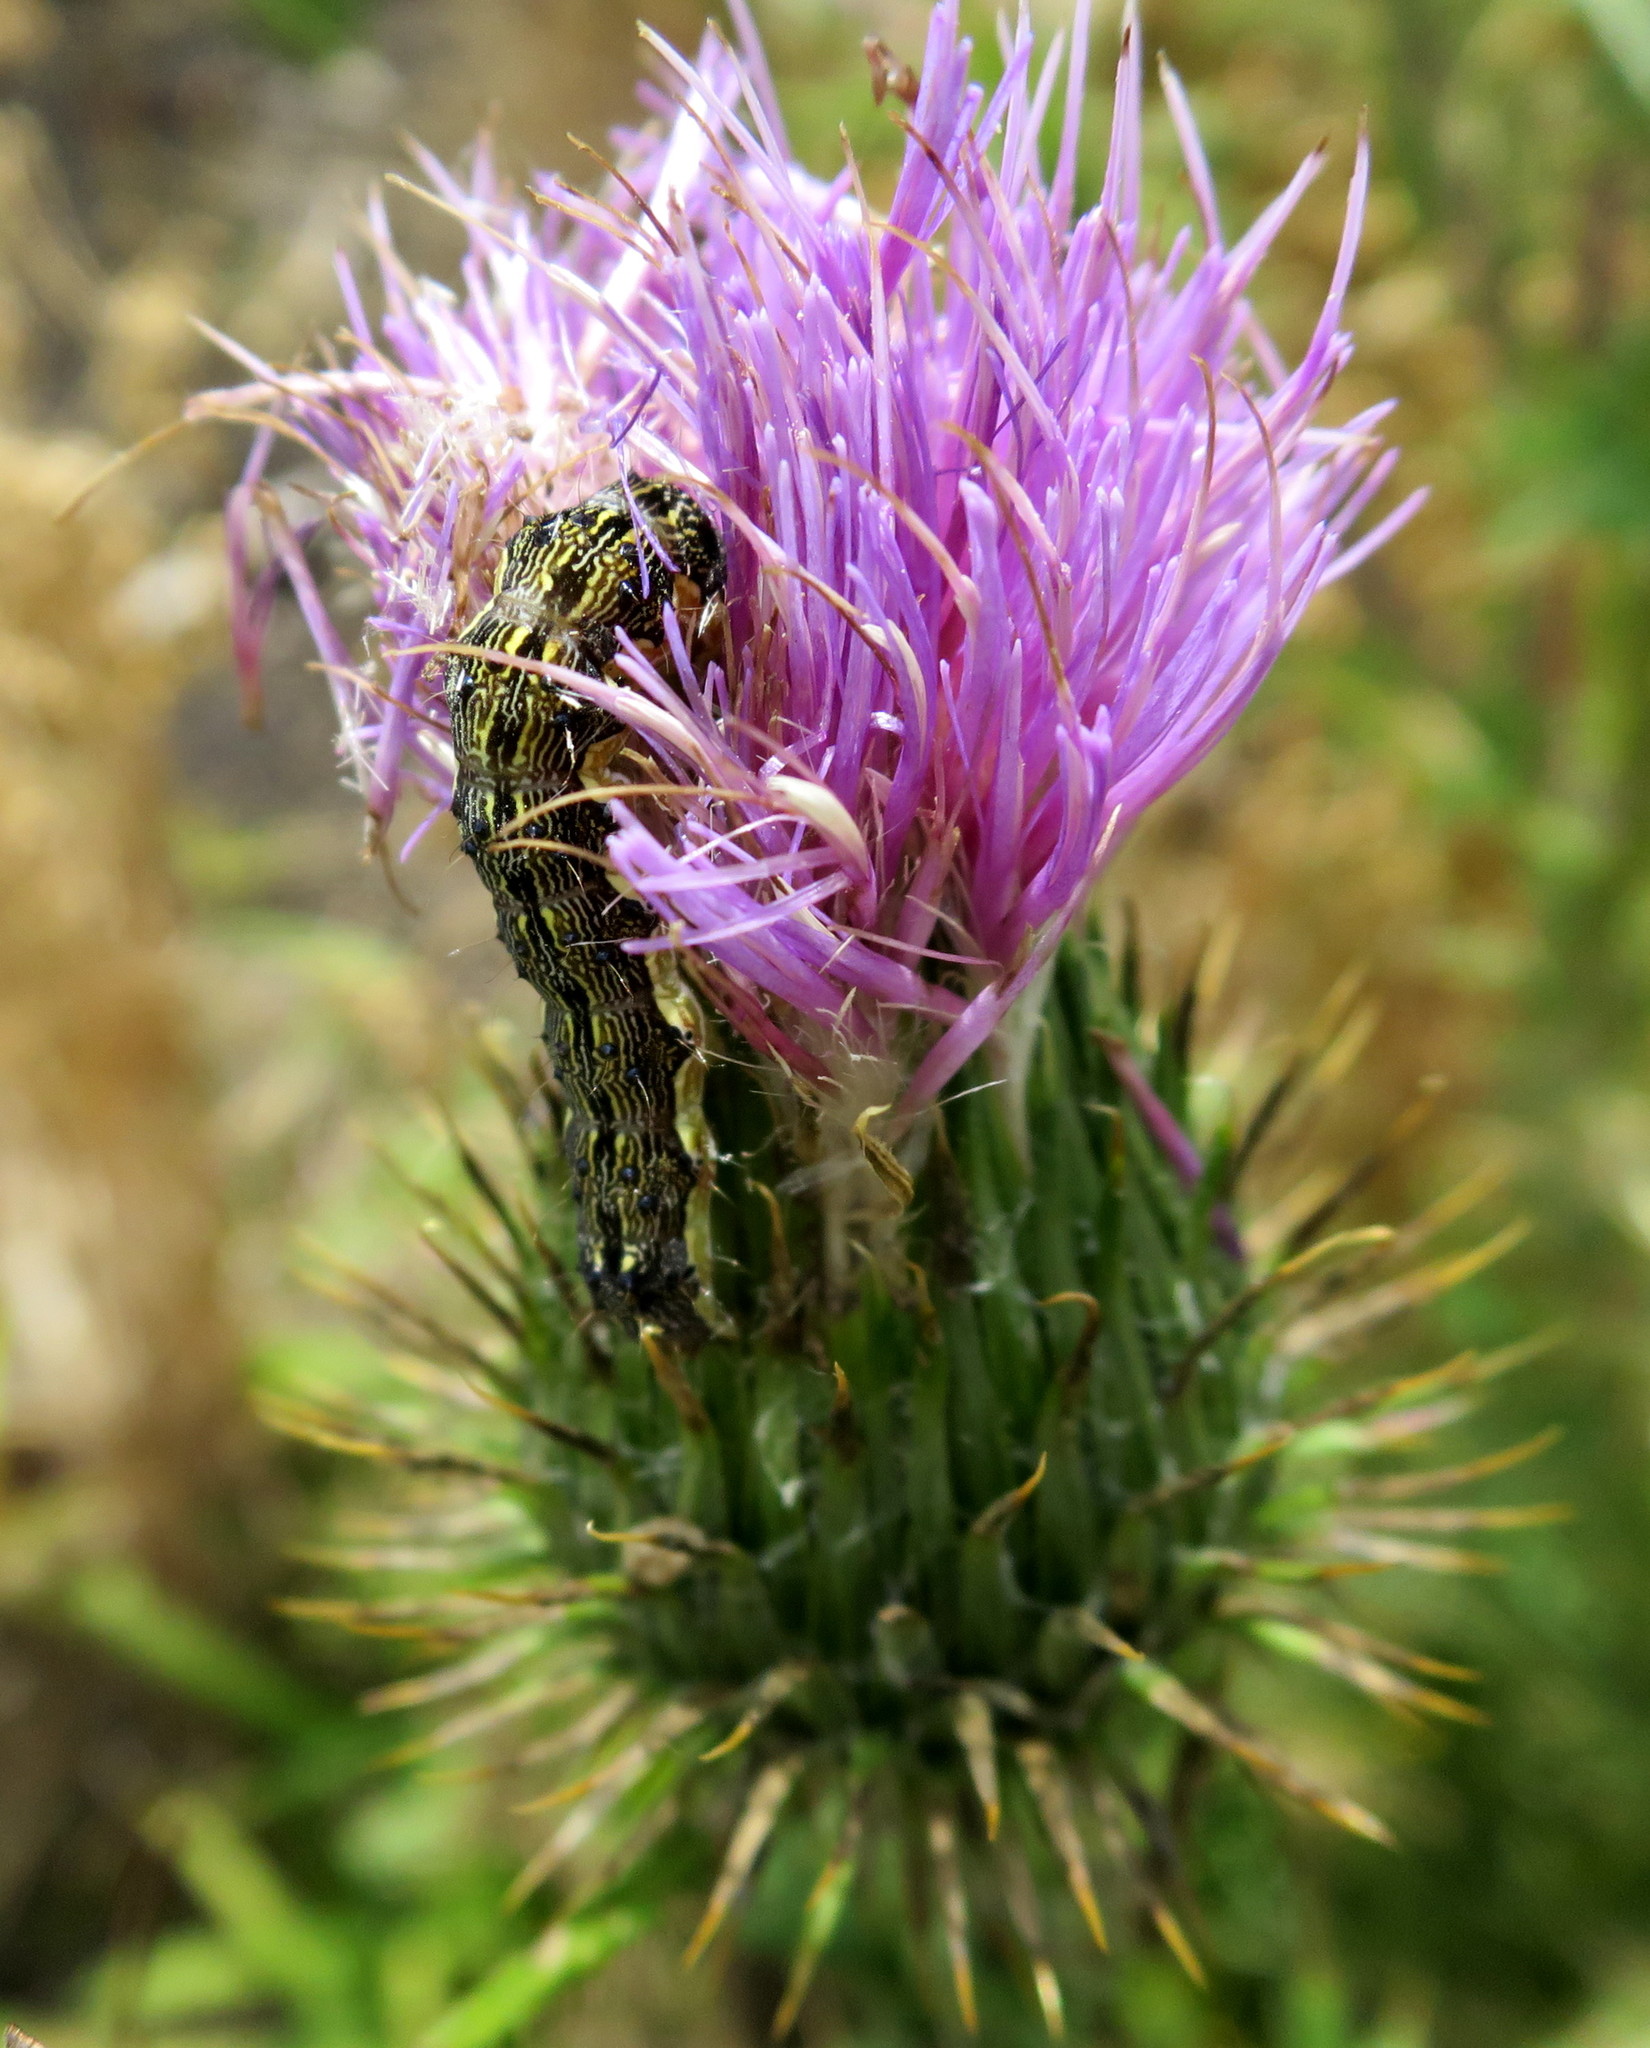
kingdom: Plantae
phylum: Tracheophyta
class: Magnoliopsida
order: Asterales
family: Asteraceae
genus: Cirsium
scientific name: Cirsium vulgare
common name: Bull thistle
